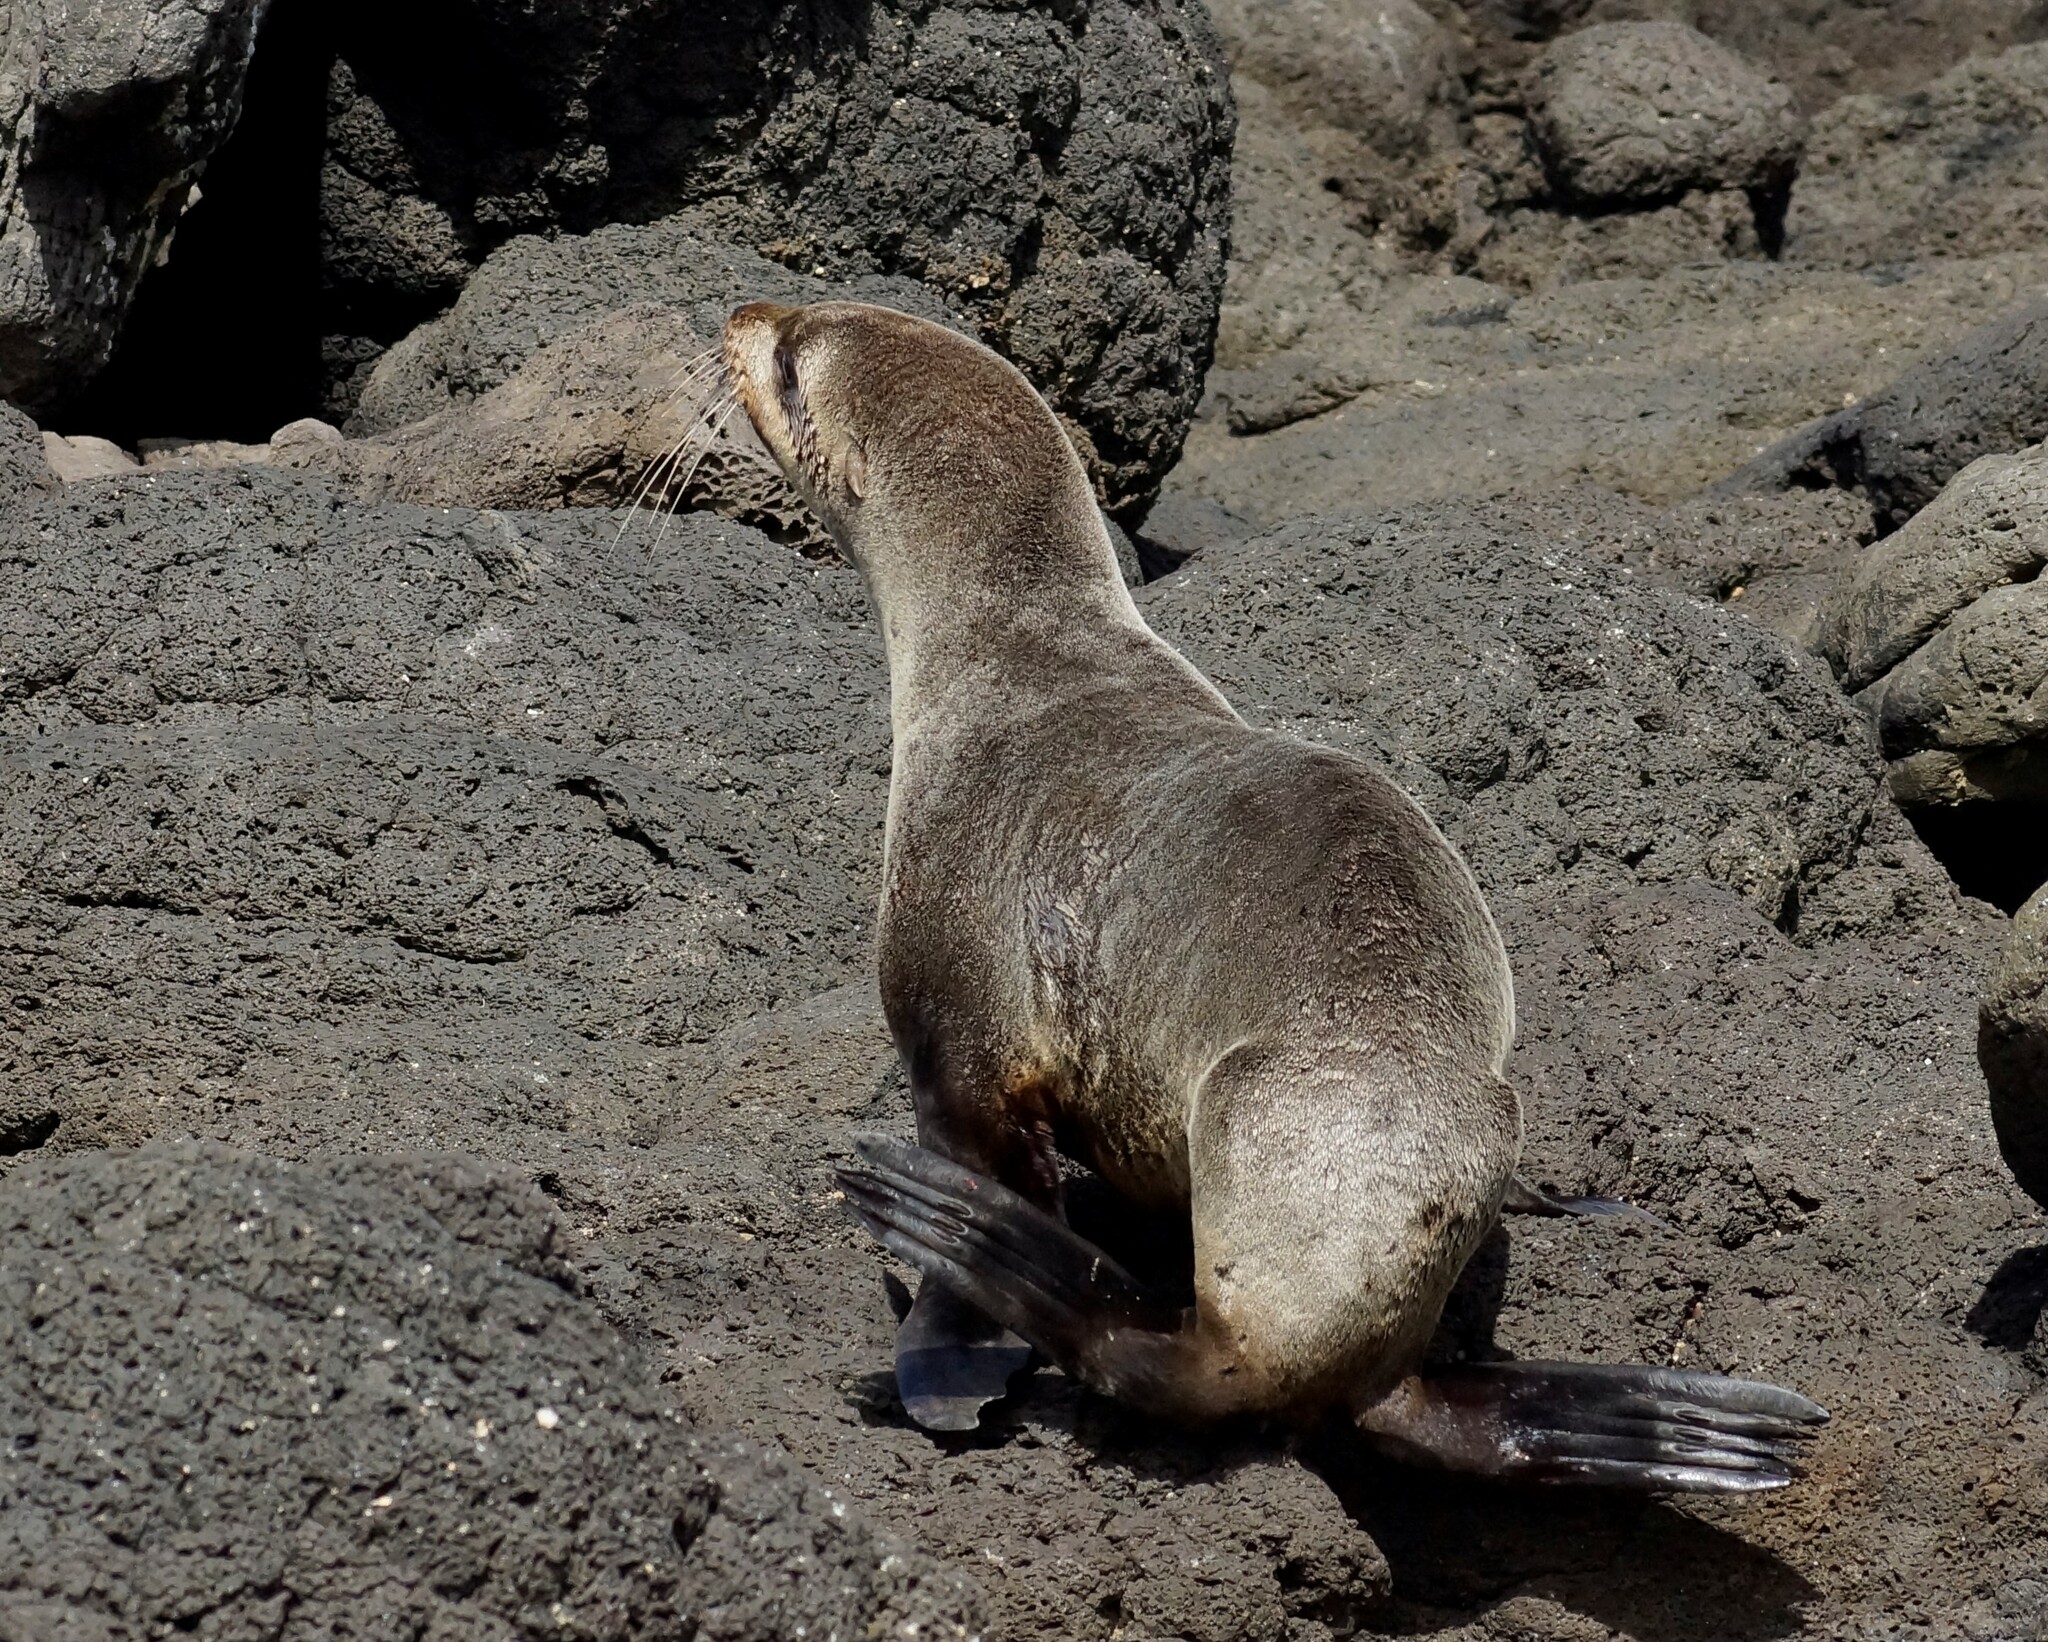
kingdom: Animalia
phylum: Chordata
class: Mammalia
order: Carnivora
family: Otariidae
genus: Arctocephalus
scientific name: Arctocephalus pusillus
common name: Brown fur seal
